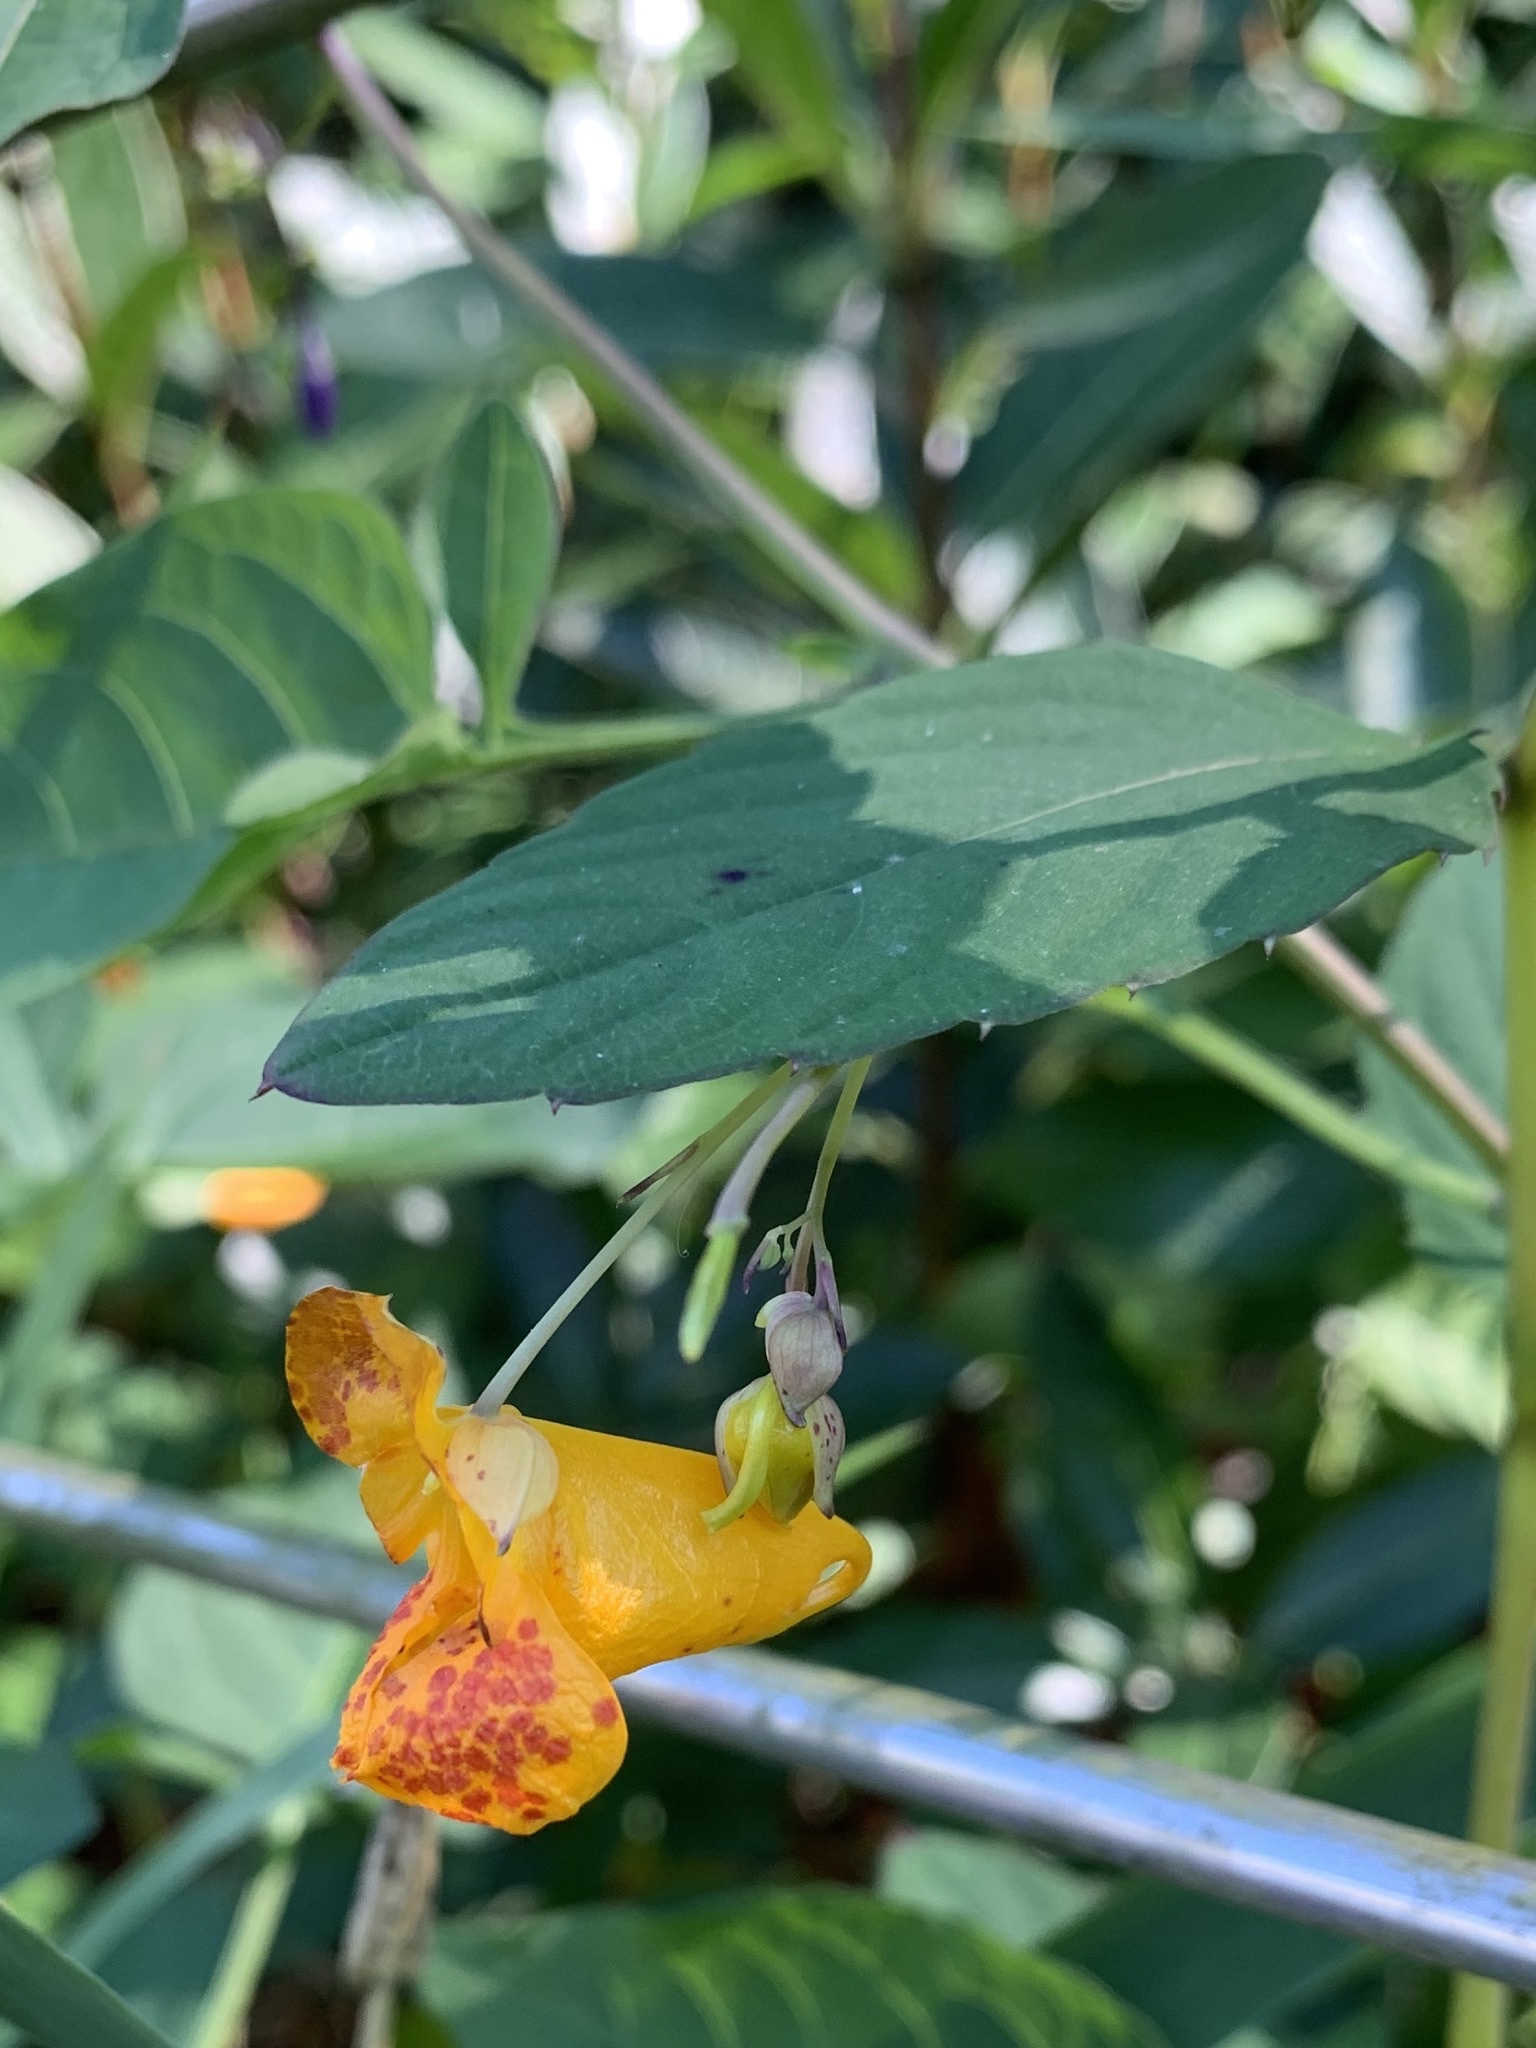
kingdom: Plantae
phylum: Tracheophyta
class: Magnoliopsida
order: Ericales
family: Balsaminaceae
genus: Impatiens
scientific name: Impatiens capensis
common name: Orange balsam
